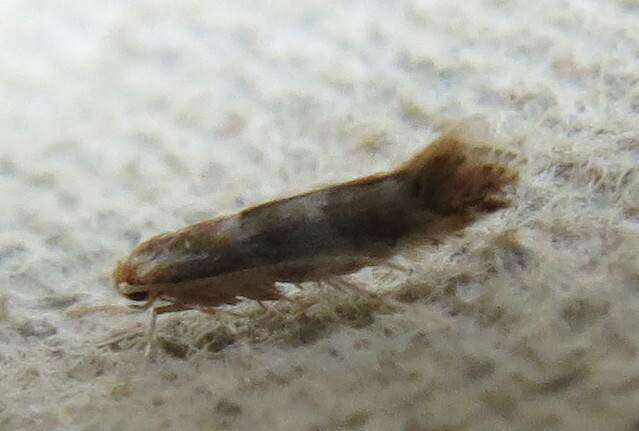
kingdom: Animalia
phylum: Arthropoda
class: Insecta
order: Lepidoptera
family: Gracillariidae
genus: Cameraria
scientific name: Cameraria ohridella
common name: Horse-chestnut leaf-miner
